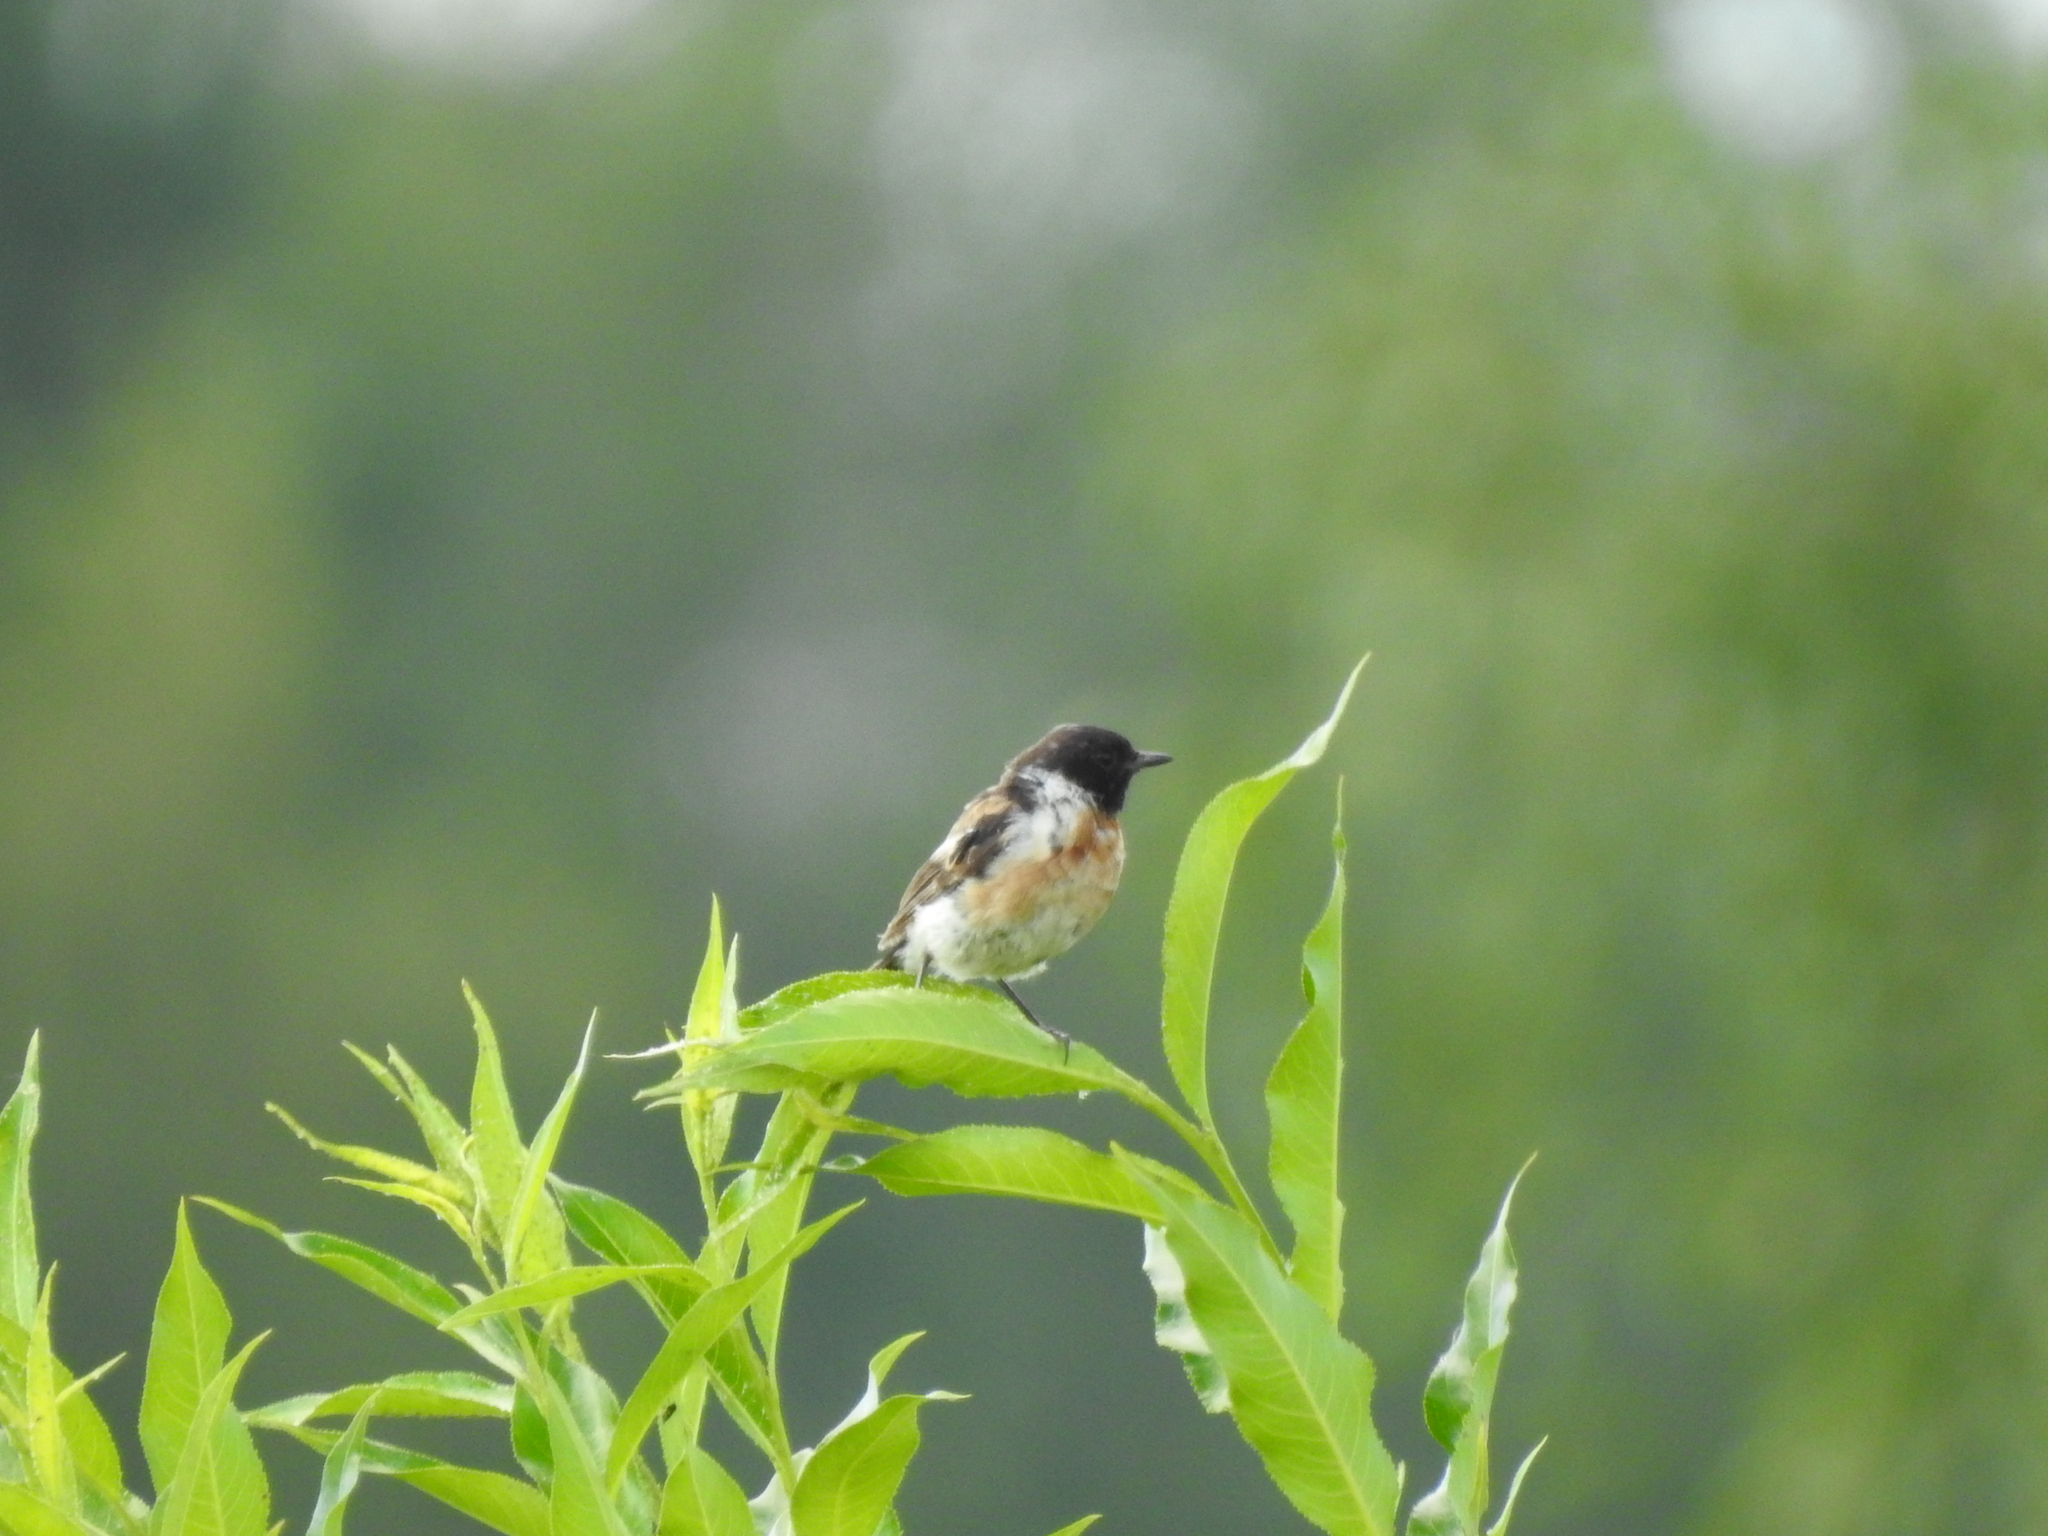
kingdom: Animalia
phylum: Chordata
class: Aves
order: Passeriformes
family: Muscicapidae
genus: Saxicola
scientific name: Saxicola maurus
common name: Siberian stonechat
